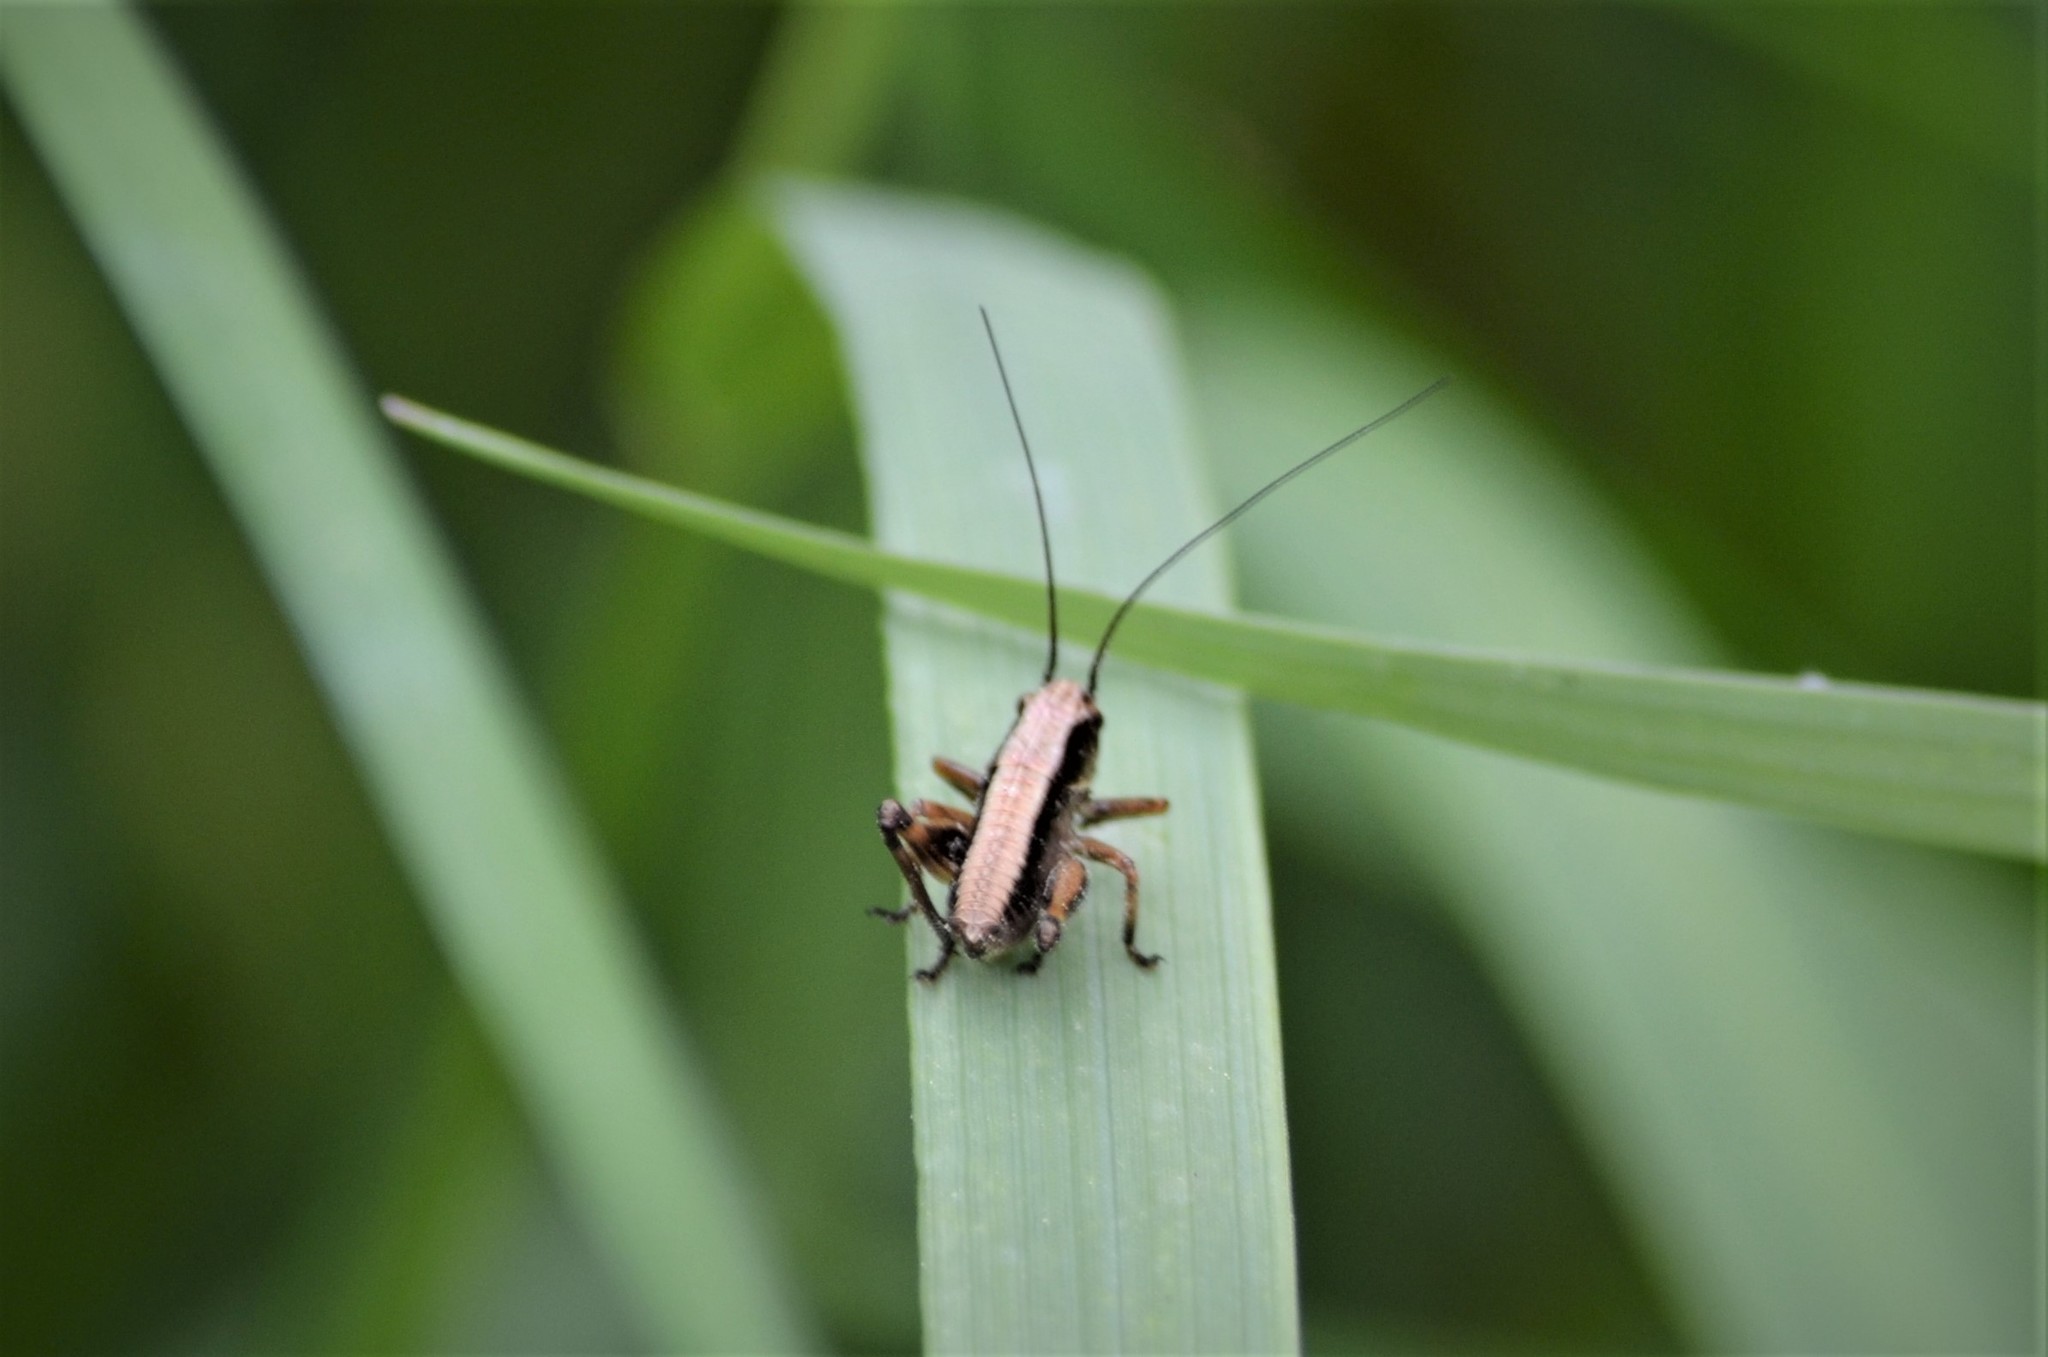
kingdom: Animalia
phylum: Arthropoda
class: Insecta
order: Orthoptera
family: Tettigoniidae
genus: Pholidoptera
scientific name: Pholidoptera griseoaptera
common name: Dark bush-cricket
